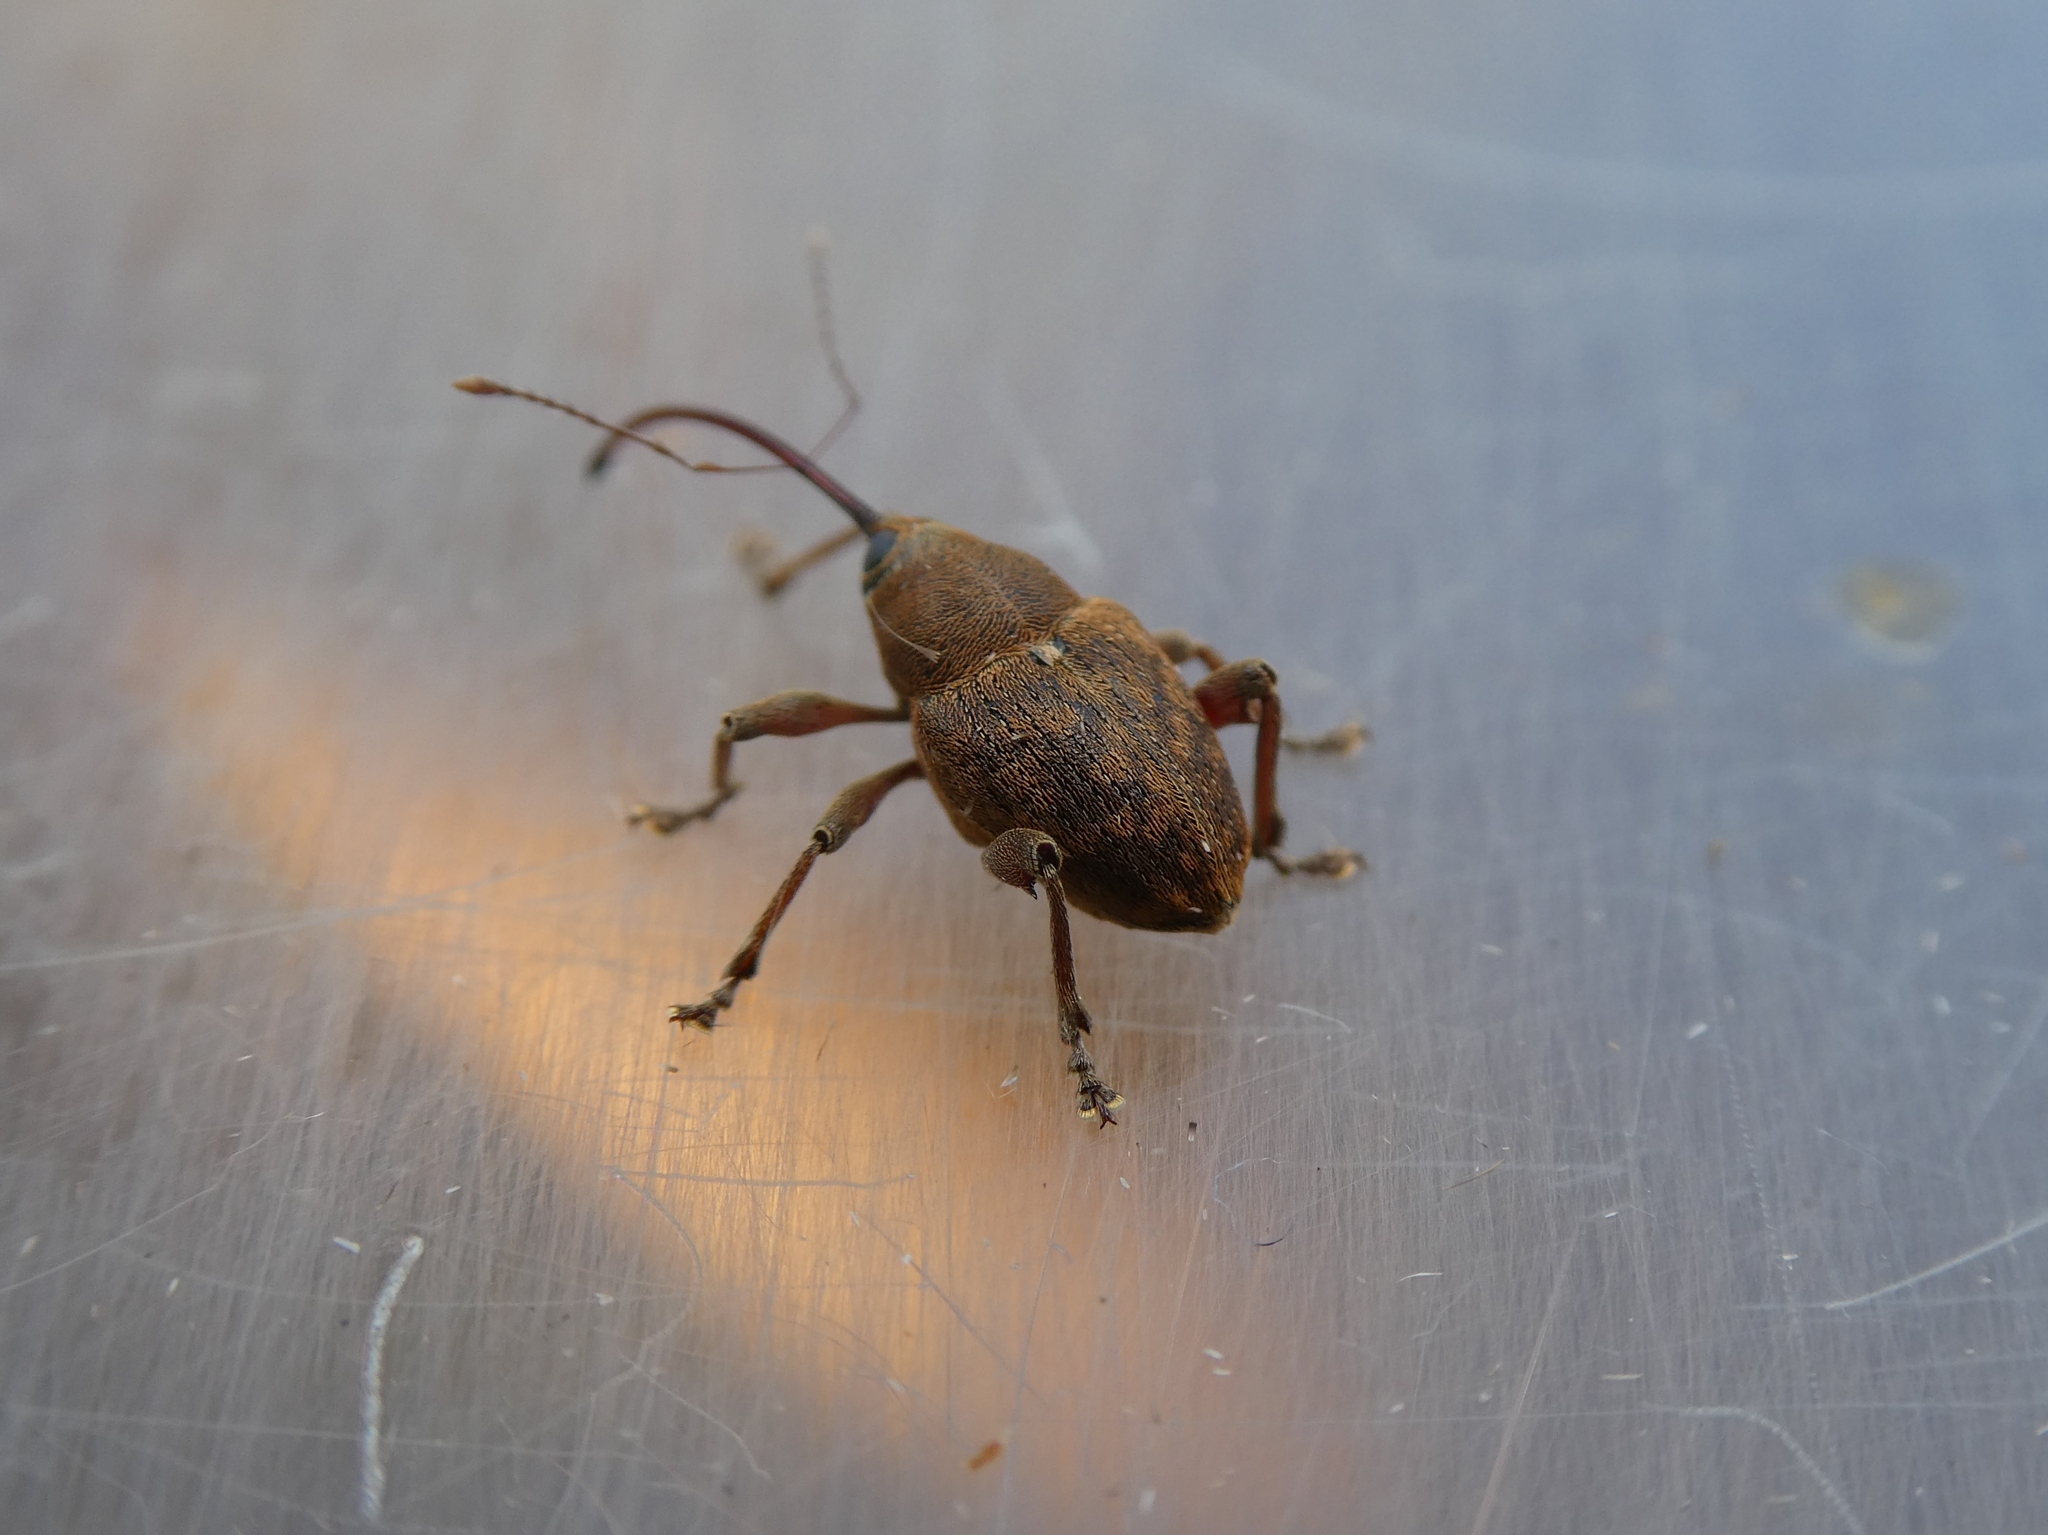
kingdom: Animalia
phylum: Arthropoda
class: Insecta
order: Coleoptera
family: Curculionidae
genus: Curculio
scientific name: Curculio glandium
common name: Acorn weevil
